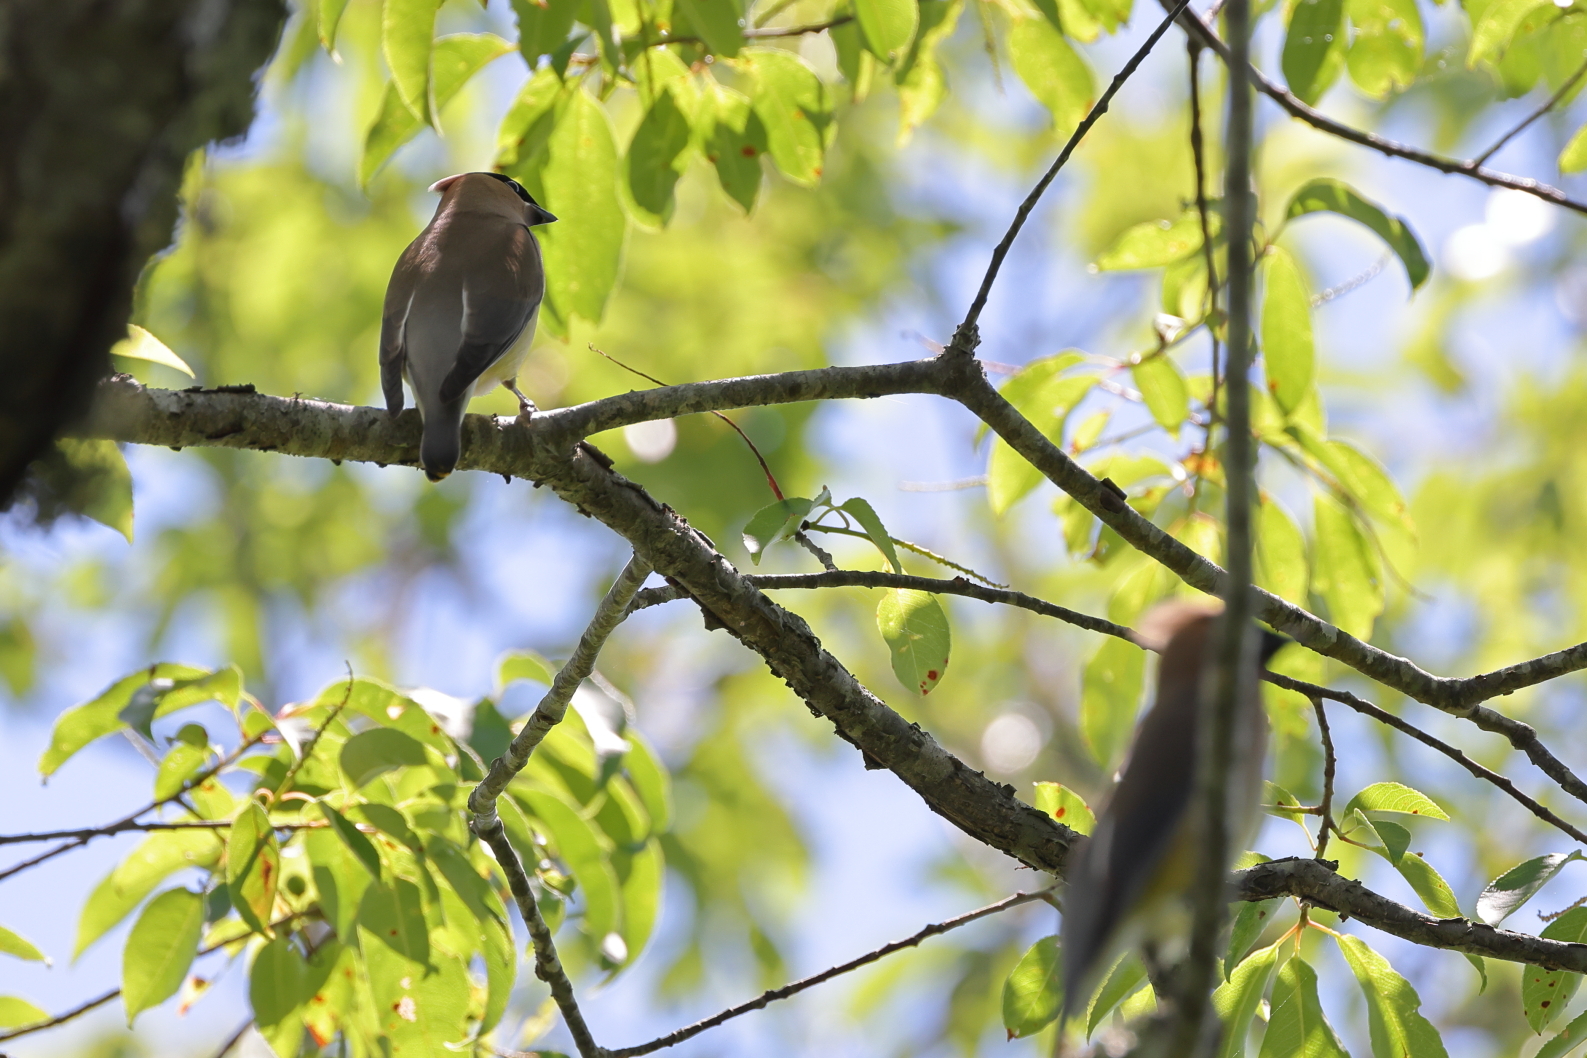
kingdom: Animalia
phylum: Chordata
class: Aves
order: Passeriformes
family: Bombycillidae
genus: Bombycilla
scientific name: Bombycilla cedrorum
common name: Cedar waxwing
